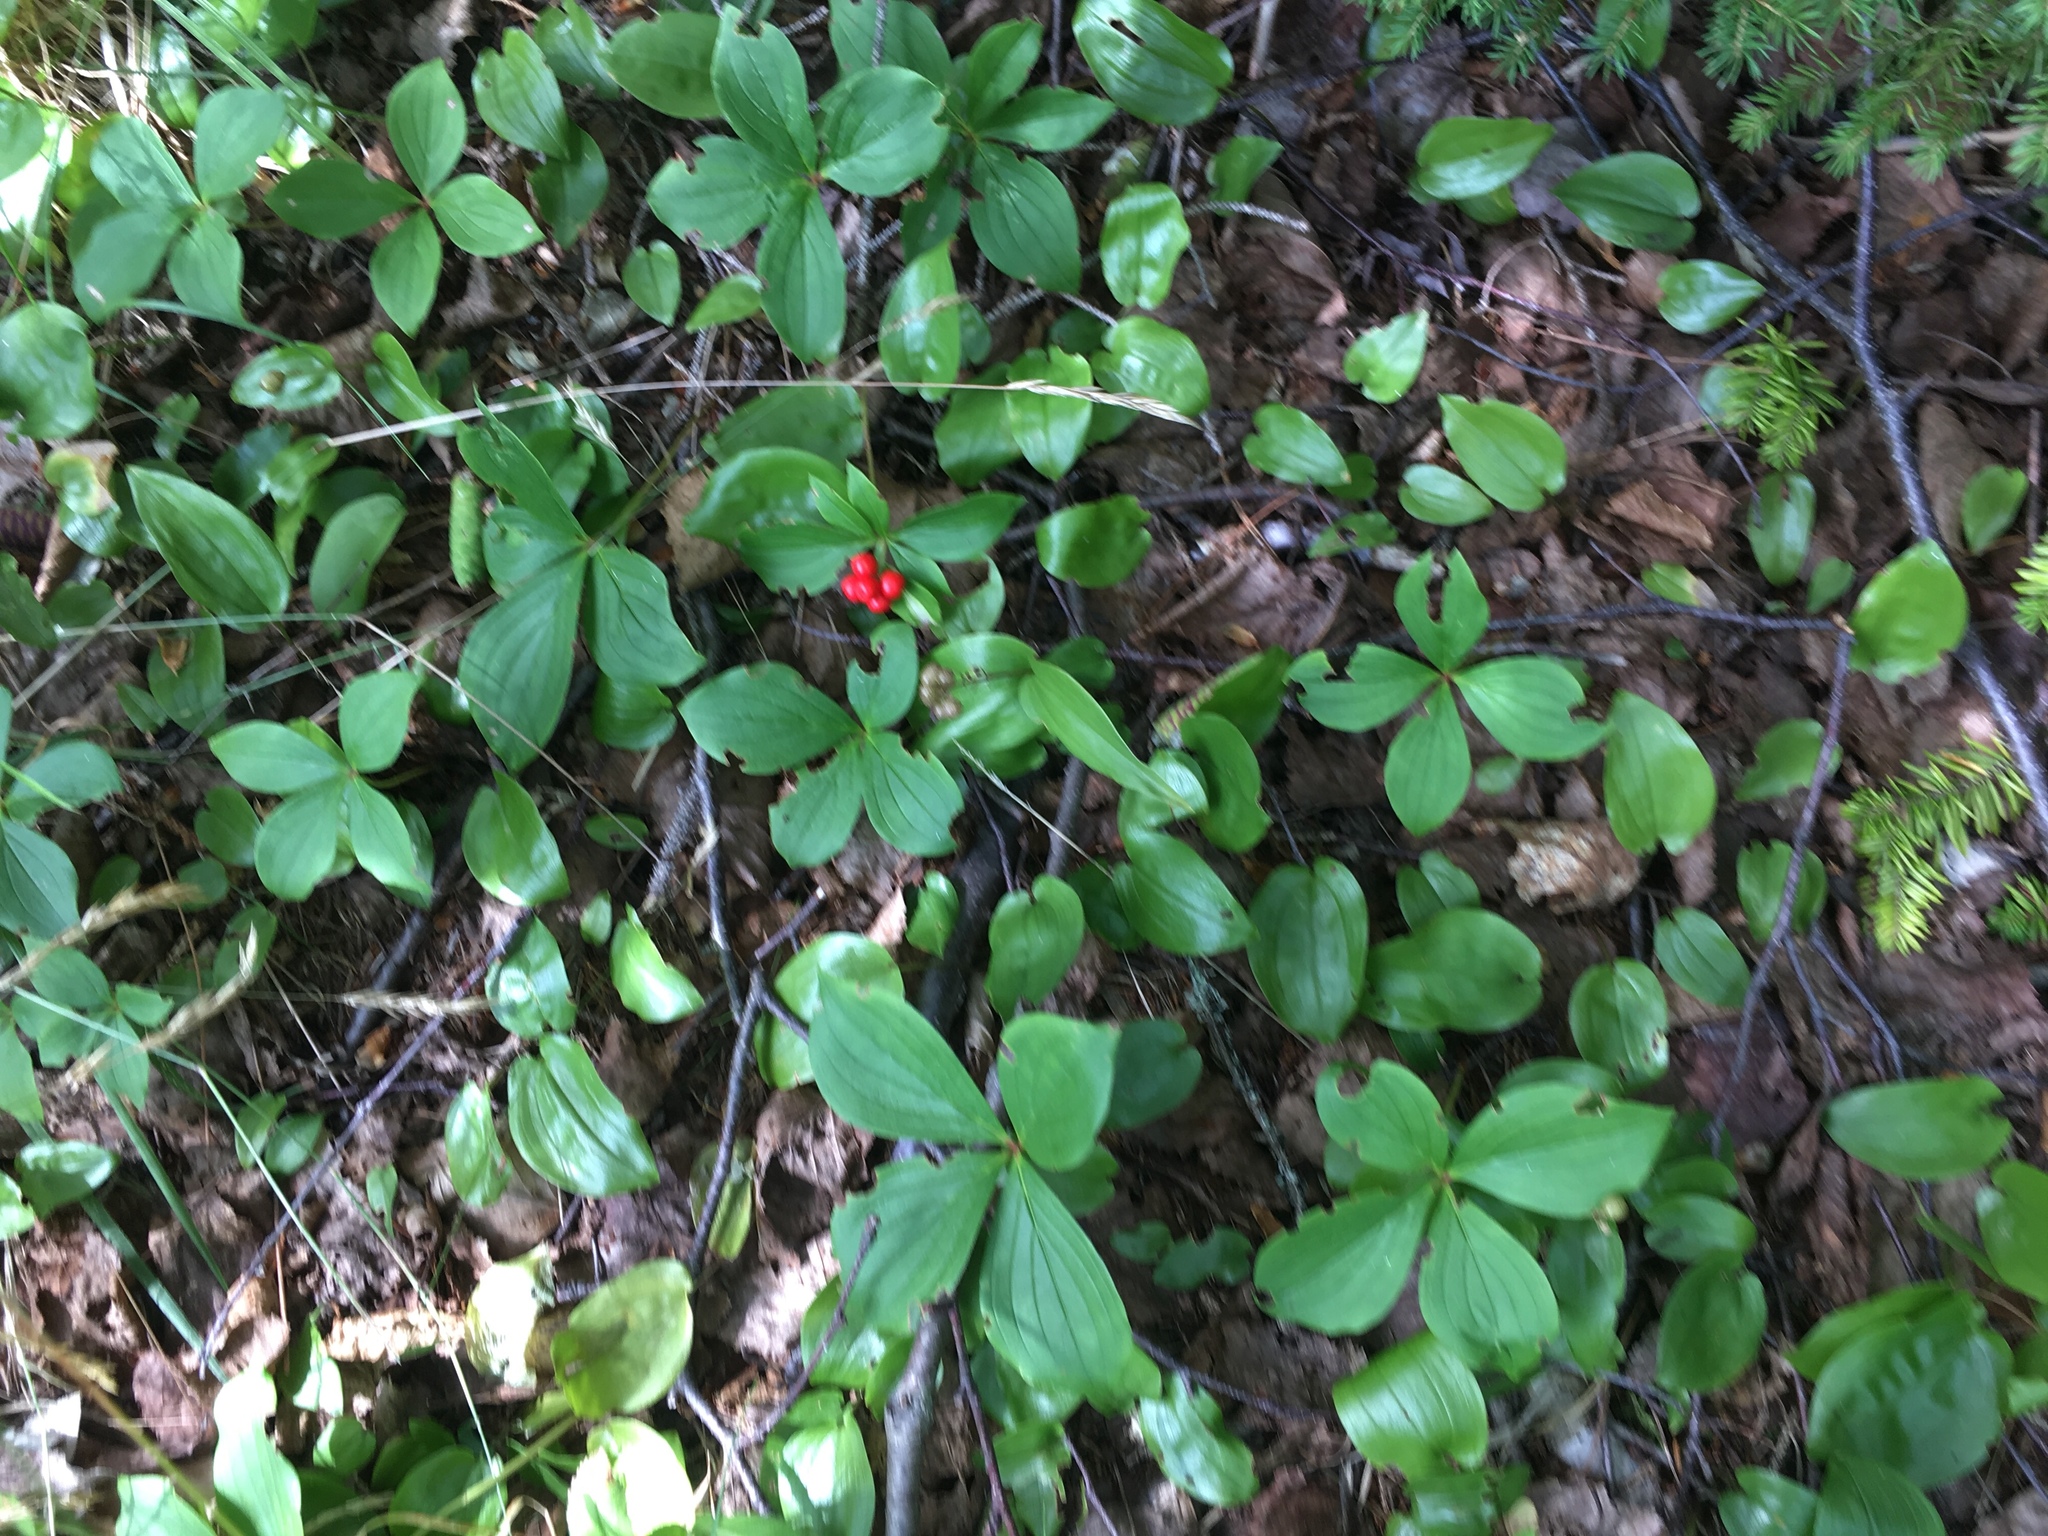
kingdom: Plantae
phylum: Tracheophyta
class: Magnoliopsida
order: Cornales
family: Cornaceae
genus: Cornus
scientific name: Cornus canadensis
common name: Creeping dogwood
